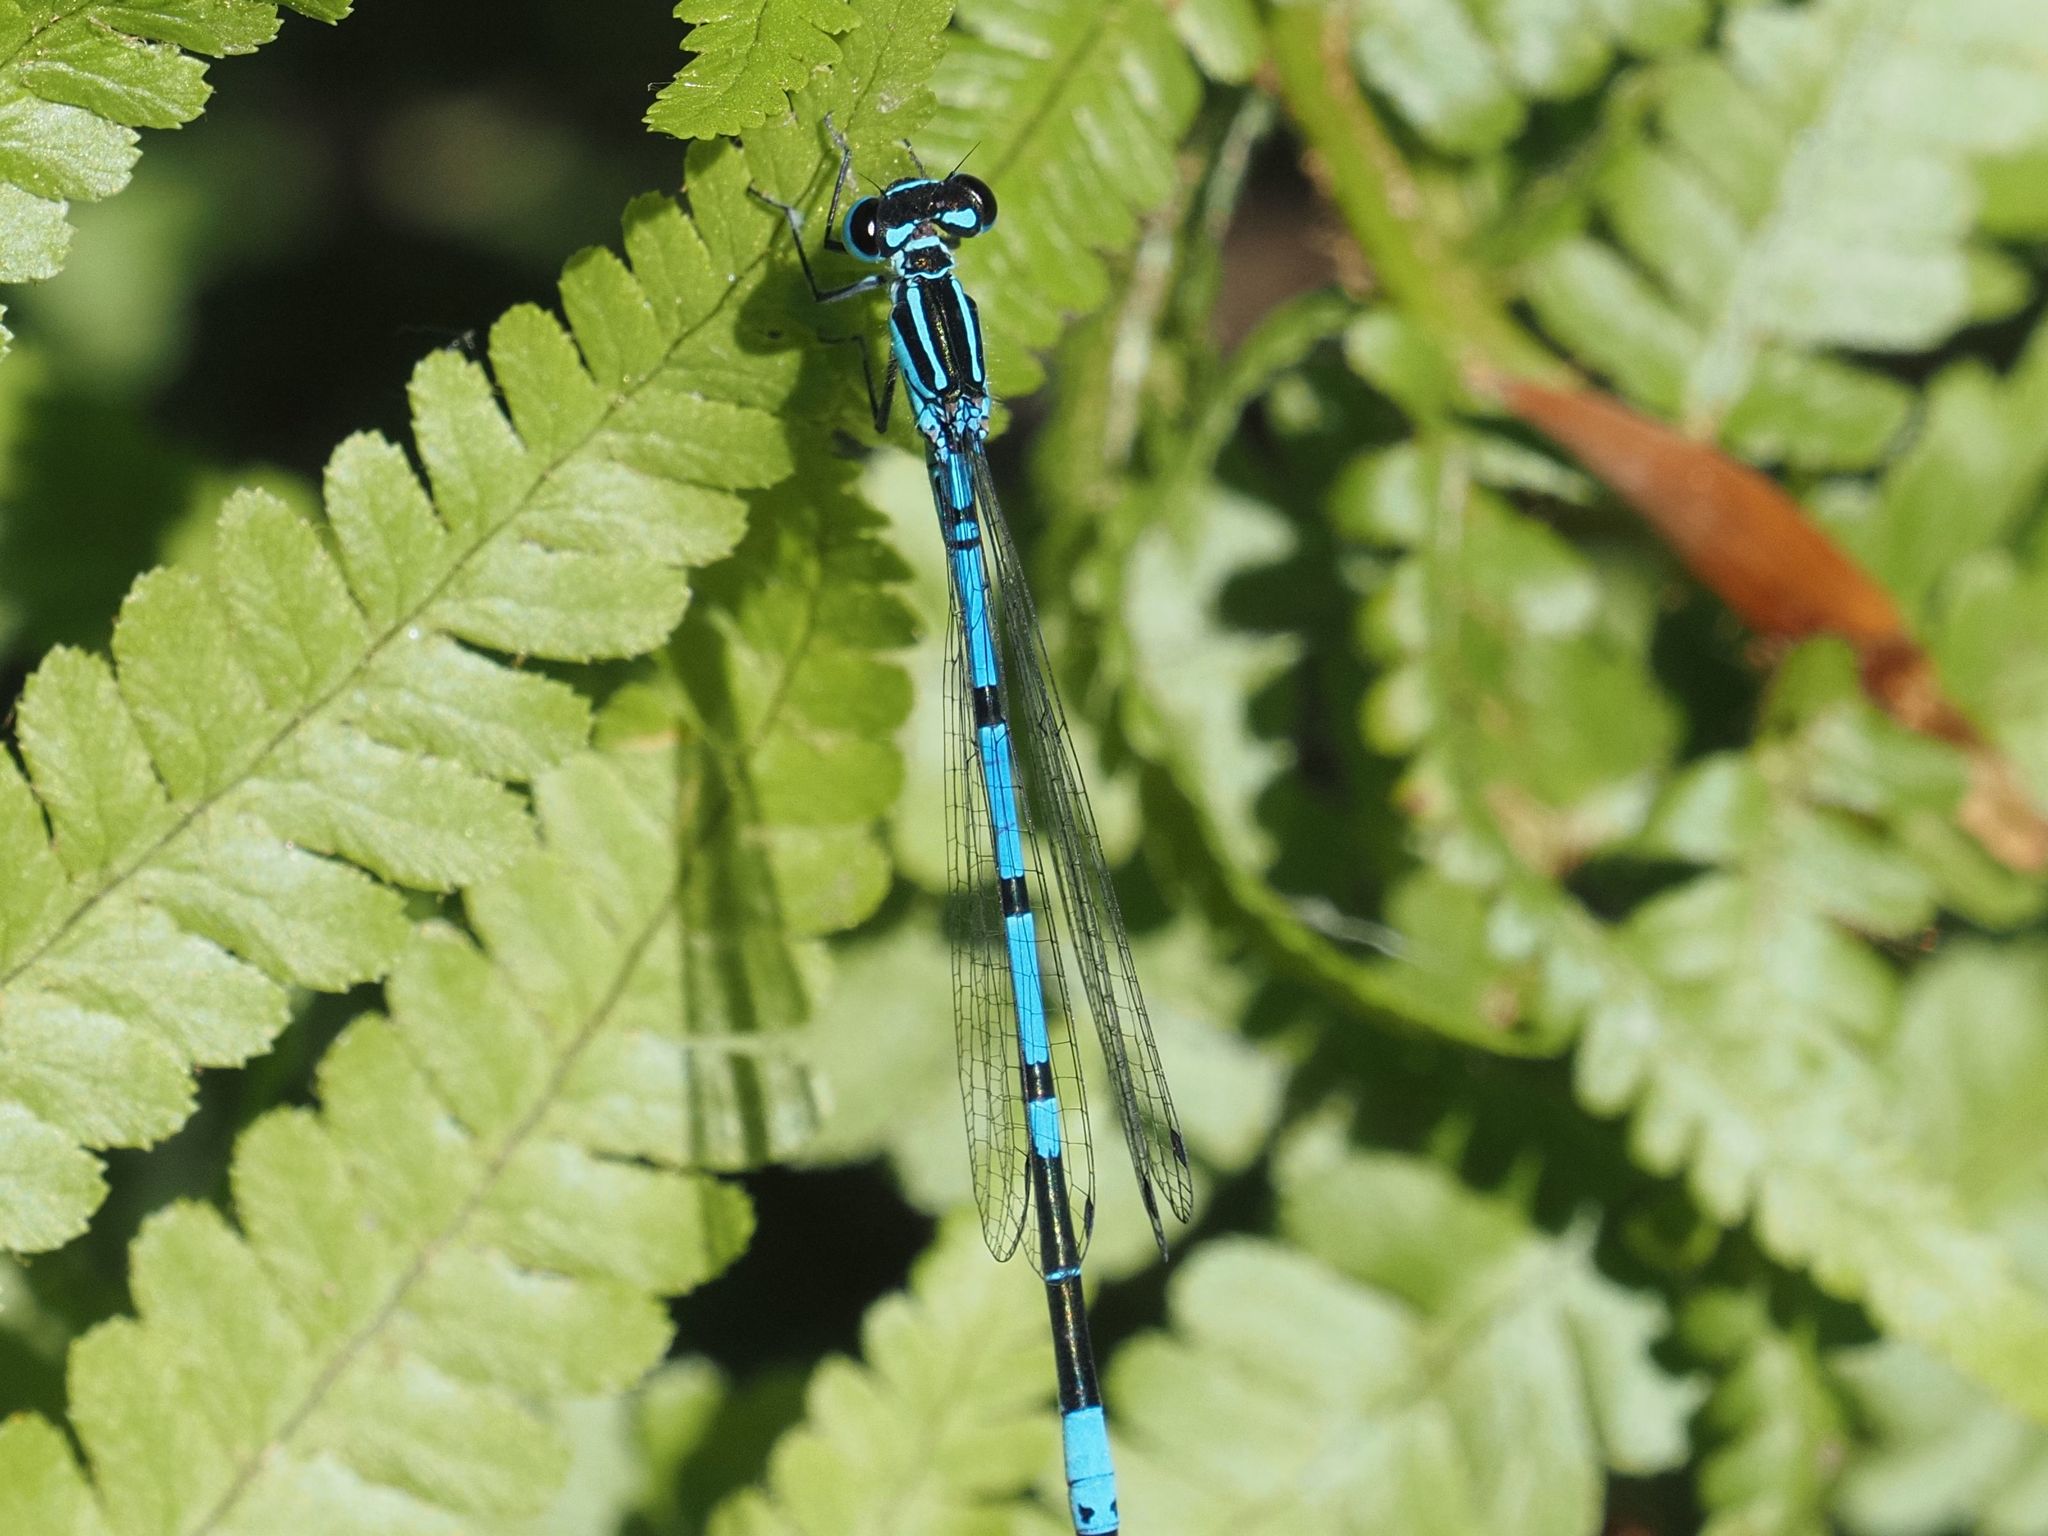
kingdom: Animalia
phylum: Arthropoda
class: Insecta
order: Odonata
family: Coenagrionidae
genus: Coenagrion
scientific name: Coenagrion puella
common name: Azure damselfly
